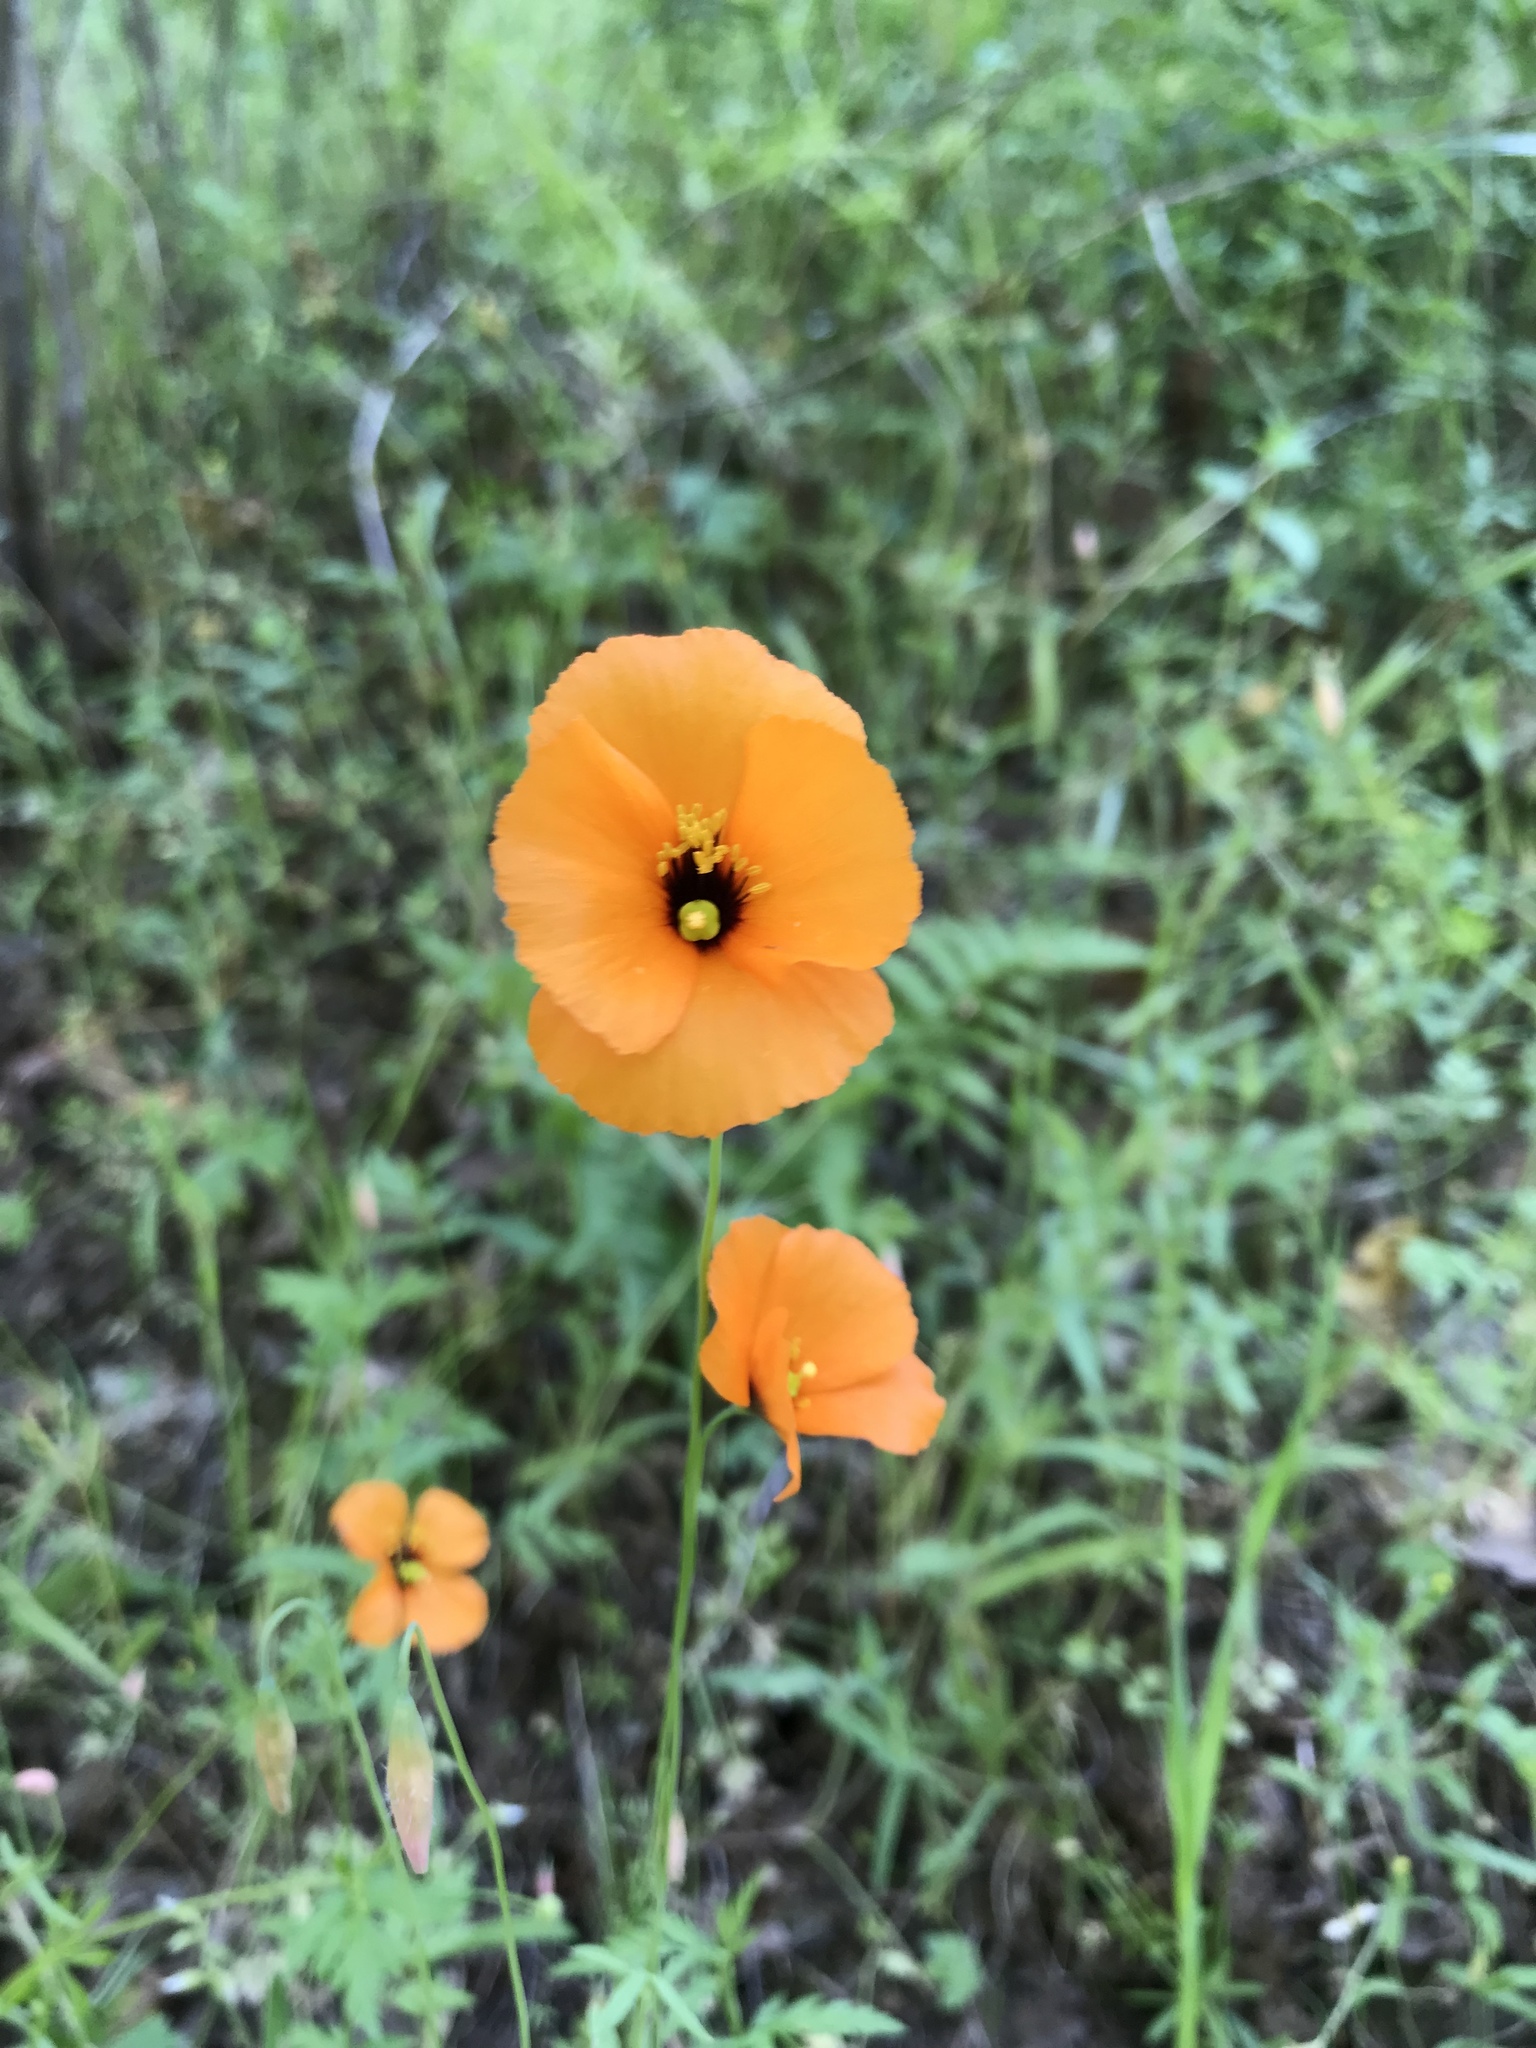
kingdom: Plantae
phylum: Tracheophyta
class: Magnoliopsida
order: Ranunculales
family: Papaveraceae
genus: Stylomecon
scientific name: Stylomecon heterophylla
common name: Flaming-poppy
